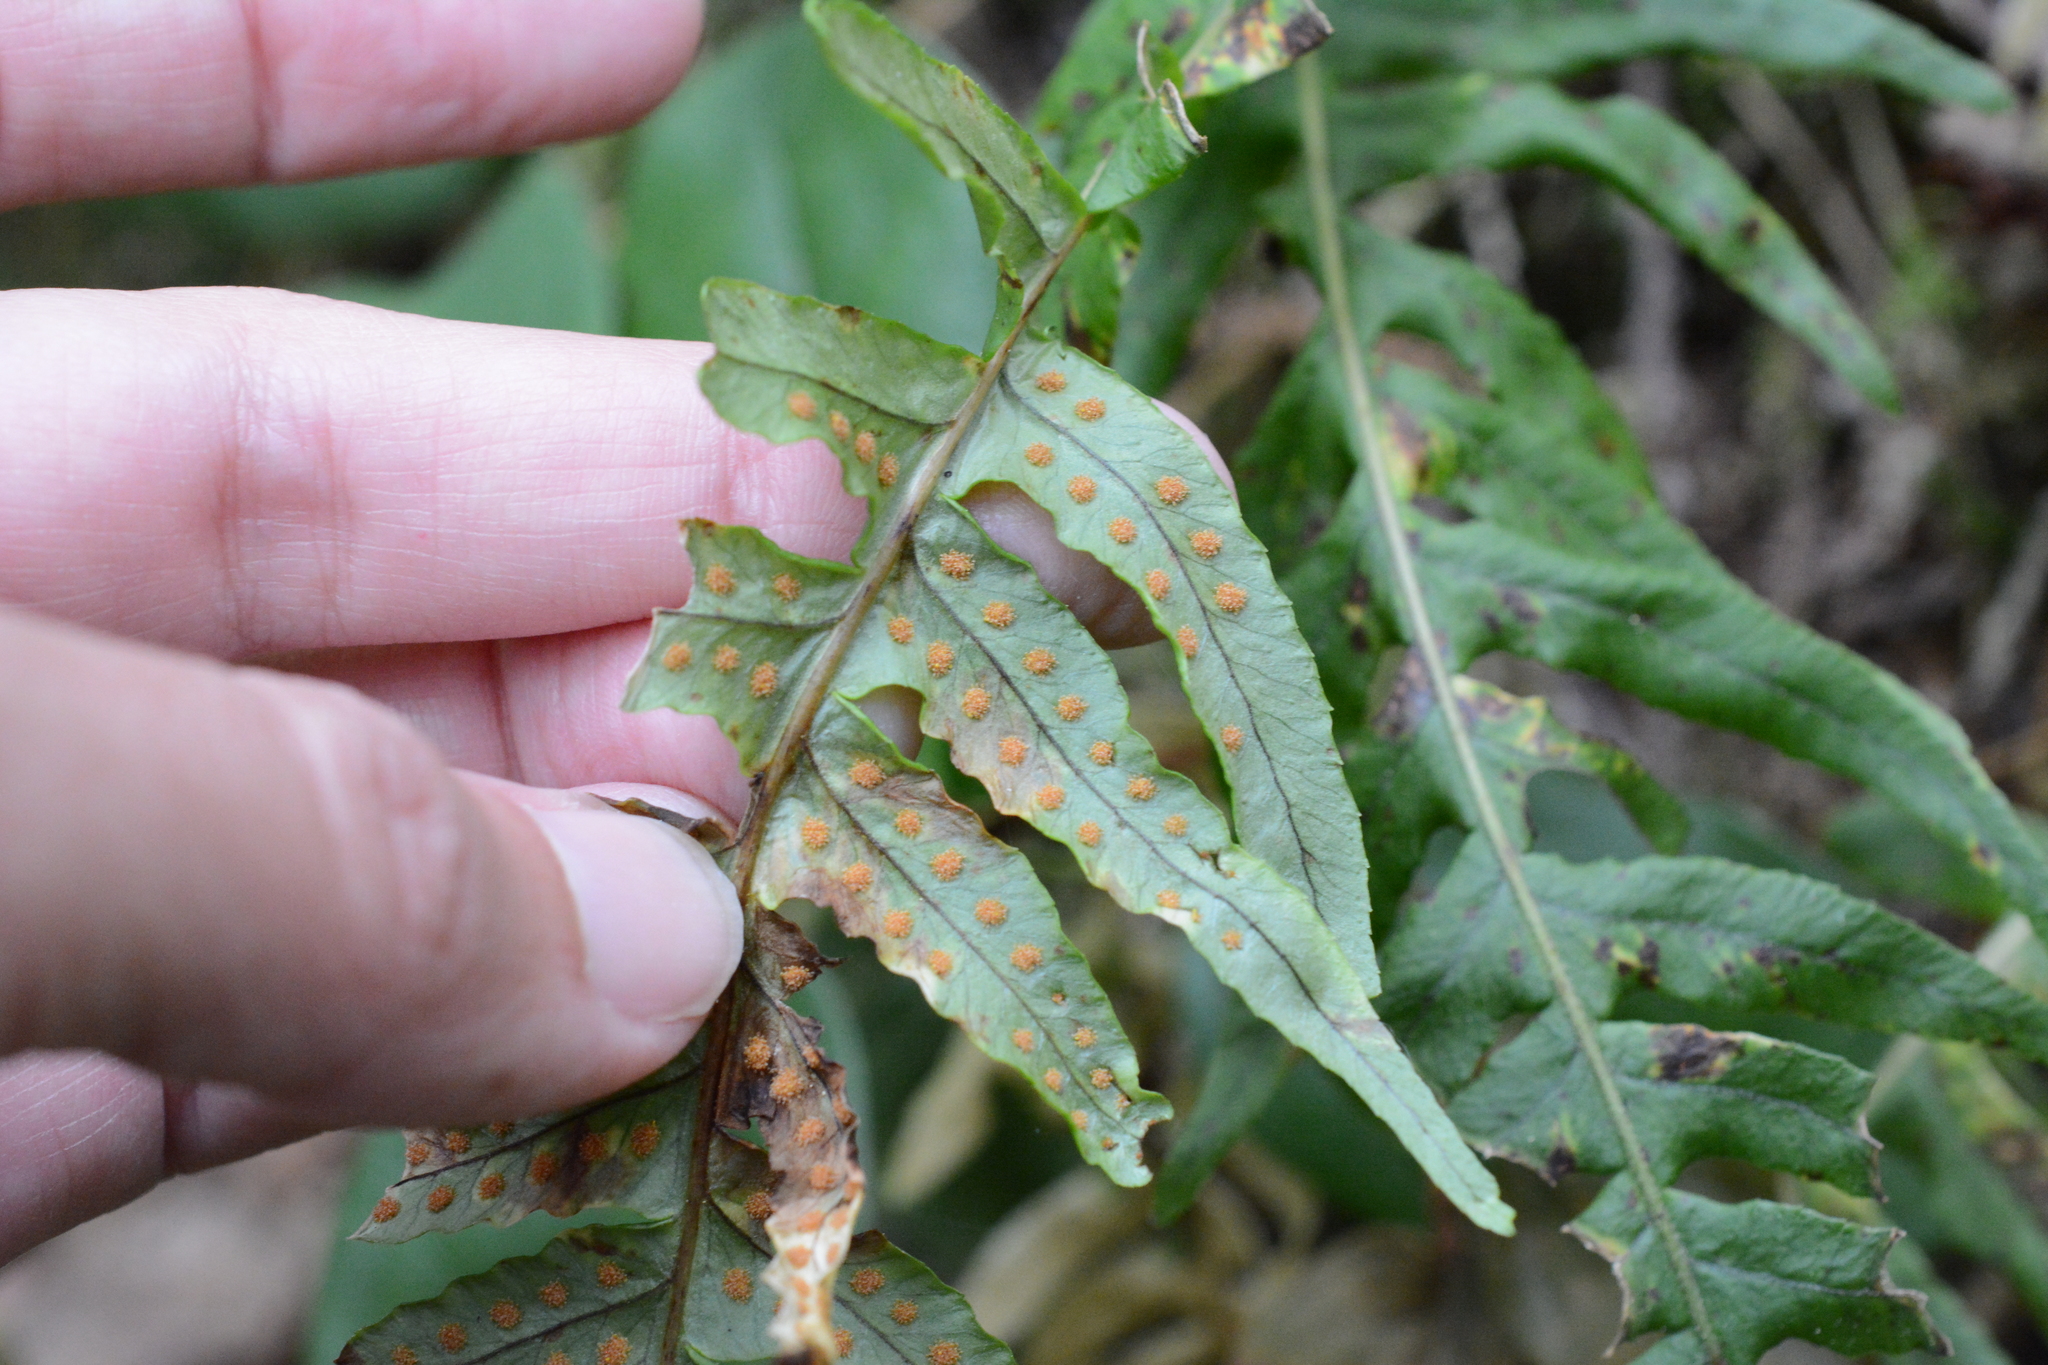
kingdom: Plantae
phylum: Tracheophyta
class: Polypodiopsida
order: Polypodiales
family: Polypodiaceae
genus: Polypodium
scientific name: Polypodium glycyrrhiza
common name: Licorice fern
